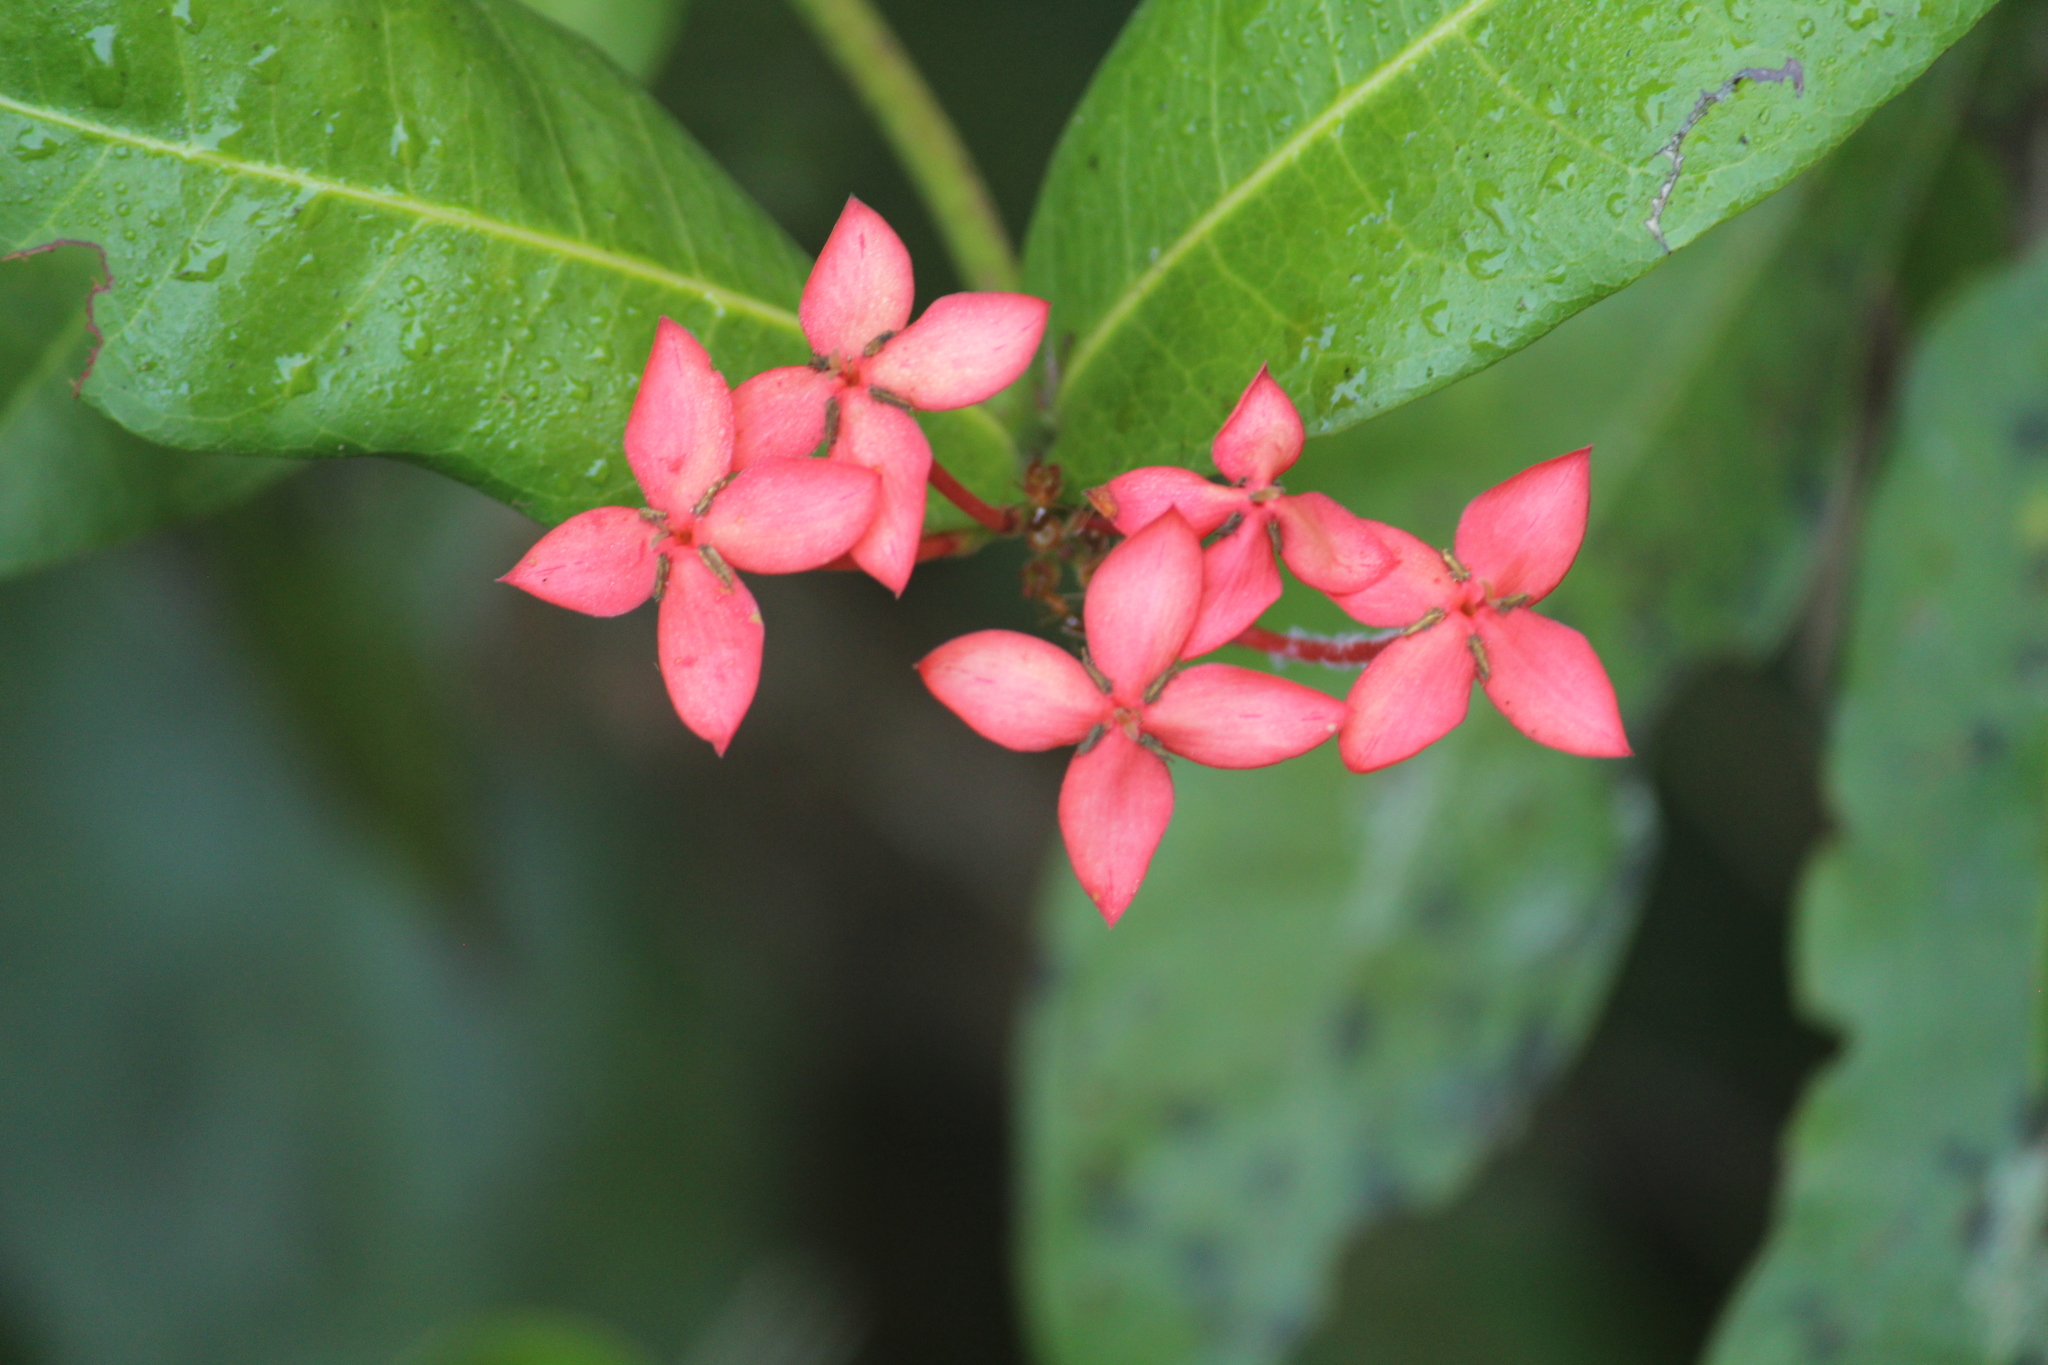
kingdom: Plantae
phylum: Tracheophyta
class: Magnoliopsida
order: Gentianales
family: Rubiaceae
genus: Ixora
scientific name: Ixora coccinea
